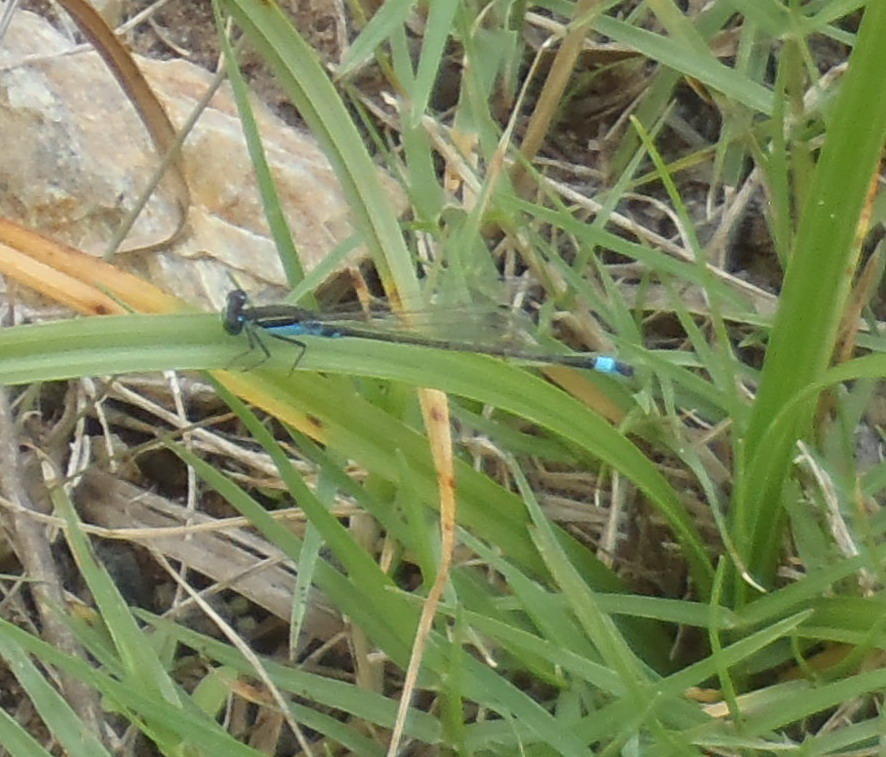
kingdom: Animalia
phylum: Arthropoda
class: Insecta
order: Odonata
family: Coenagrionidae
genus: Ischnura
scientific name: Ischnura senegalensis
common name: Tropical bluetail
